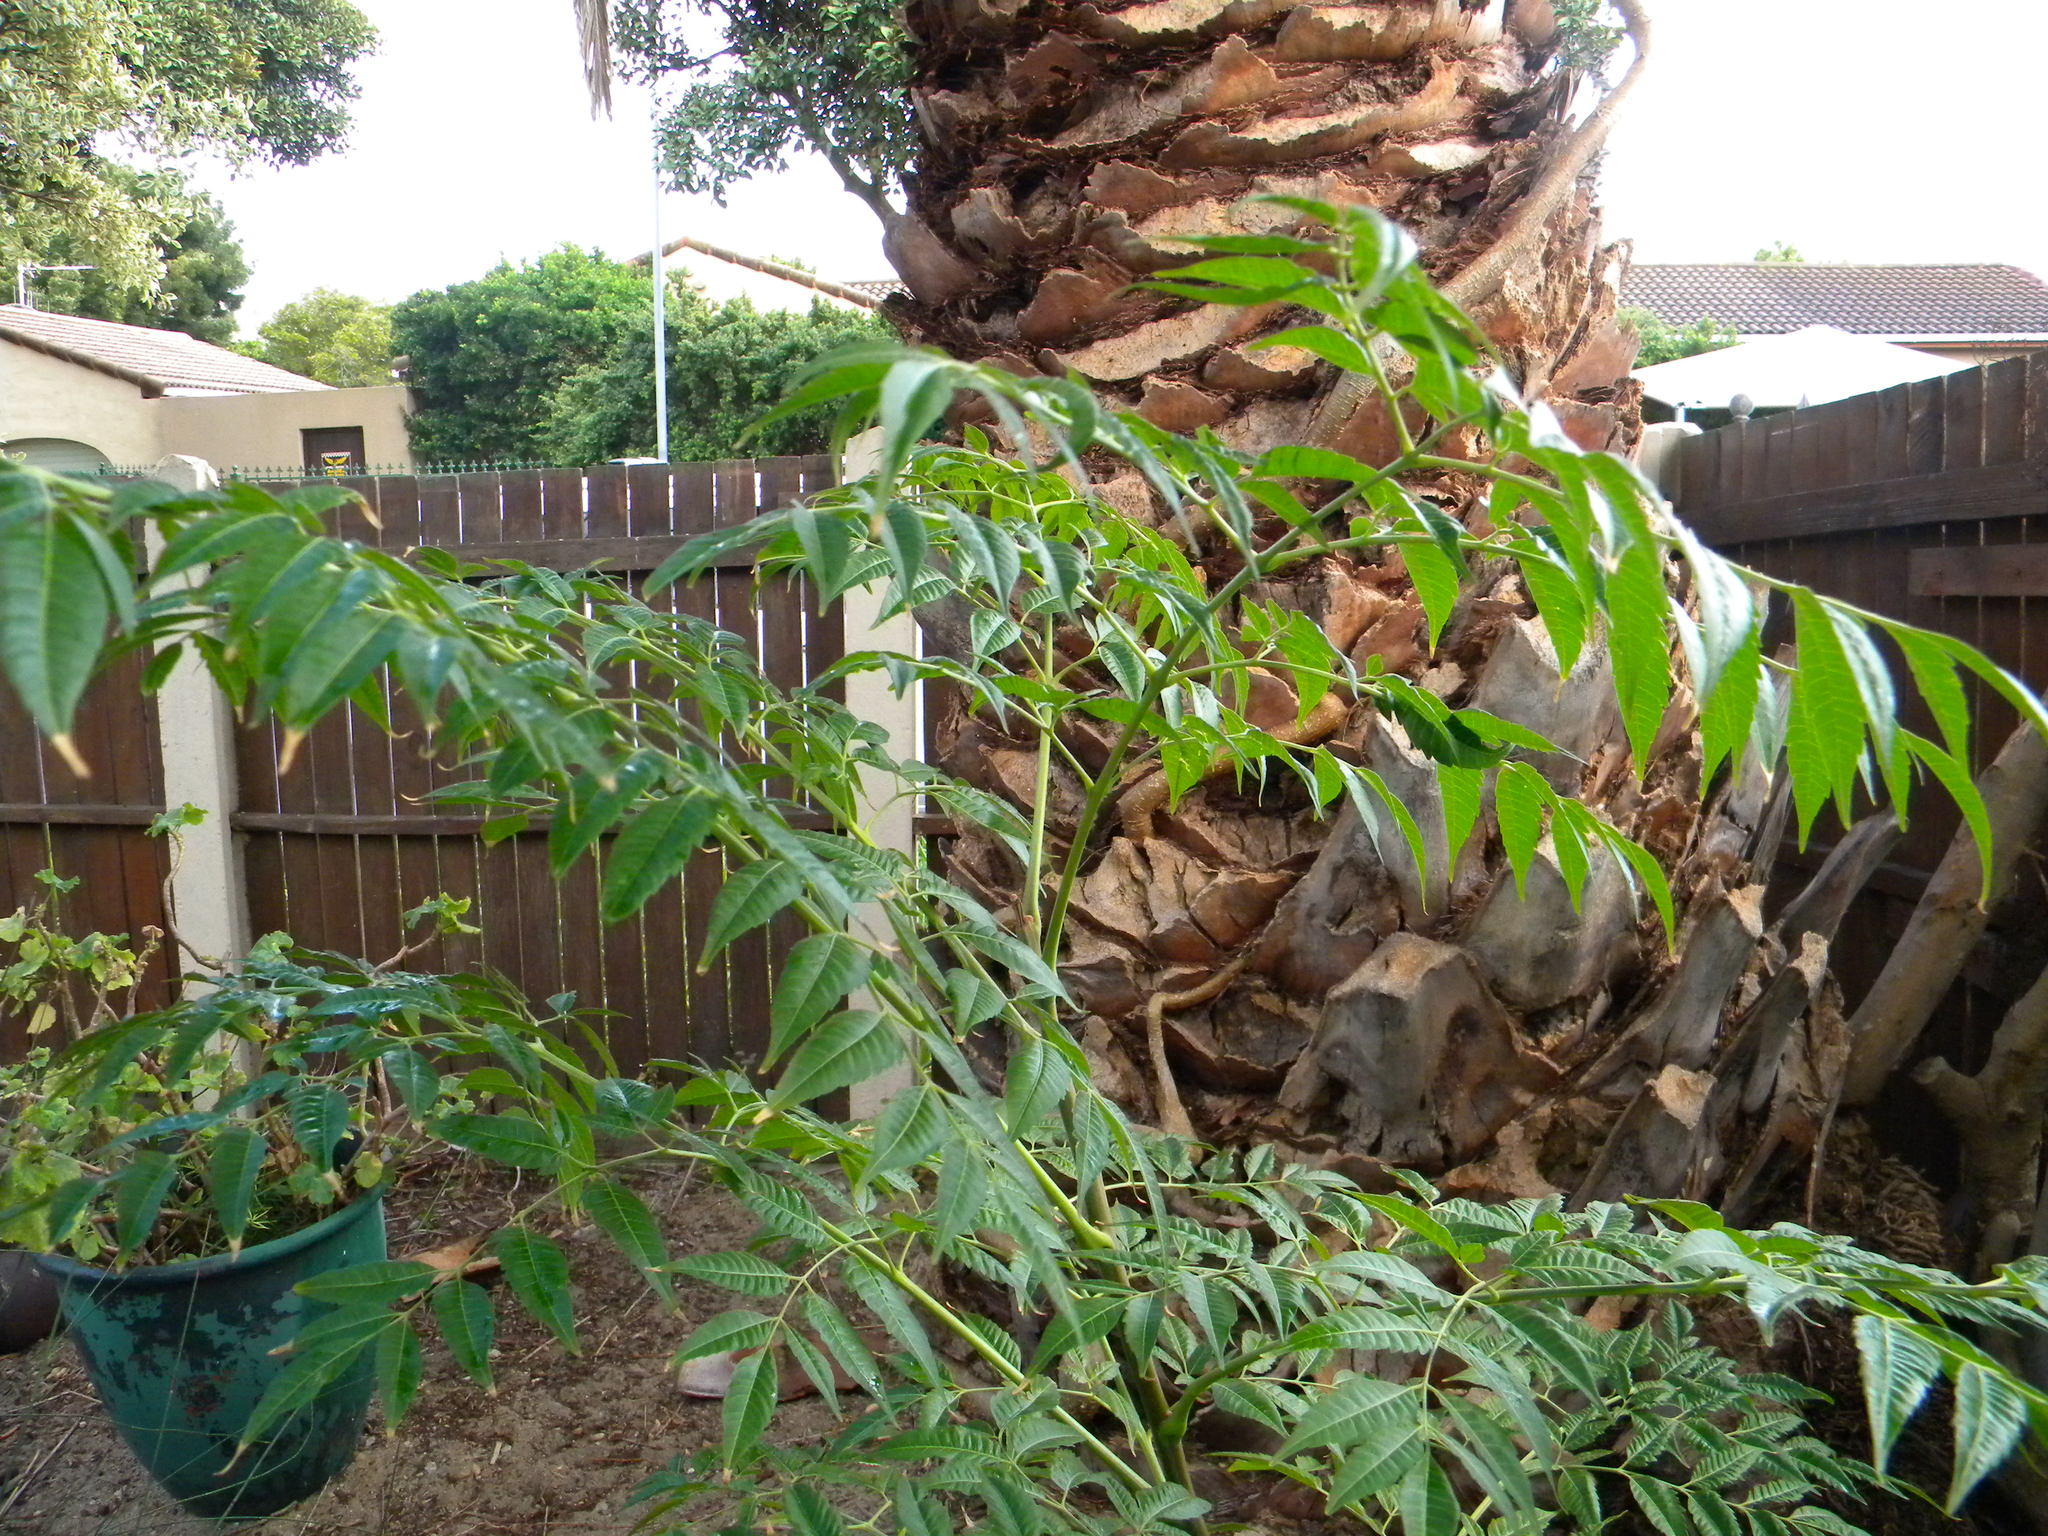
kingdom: Plantae
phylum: Tracheophyta
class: Magnoliopsida
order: Sapindales
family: Meliaceae
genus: Melia
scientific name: Melia azedarach
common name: Chinaberrytree
